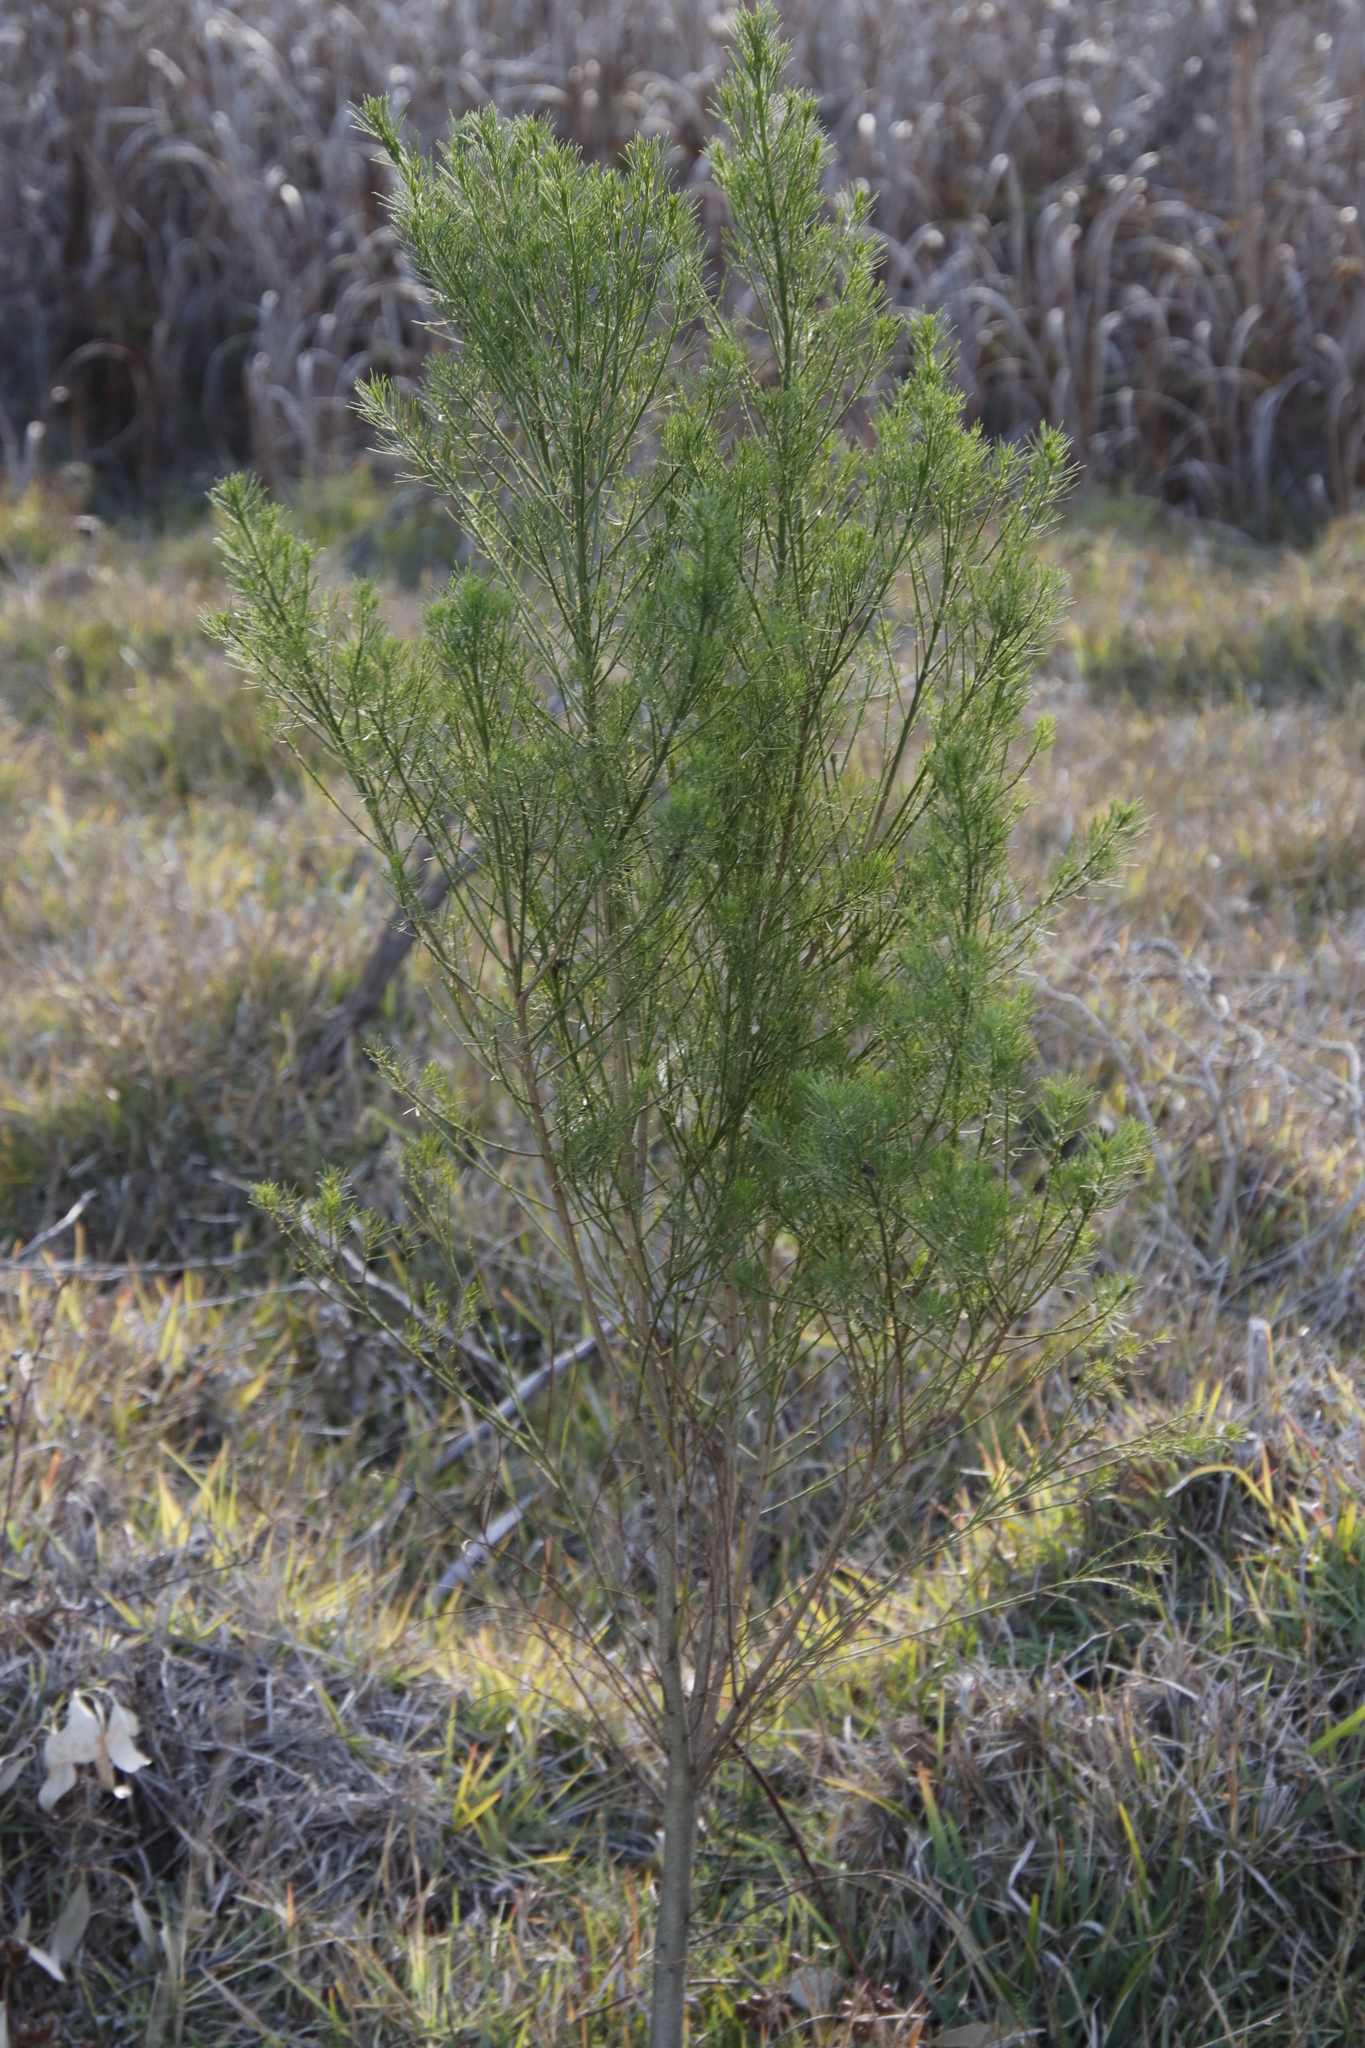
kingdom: Plantae
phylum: Tracheophyta
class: Magnoliopsida
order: Fabales
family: Fabaceae
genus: Psoralea
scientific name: Psoralea pinnata
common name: African scurfpea
